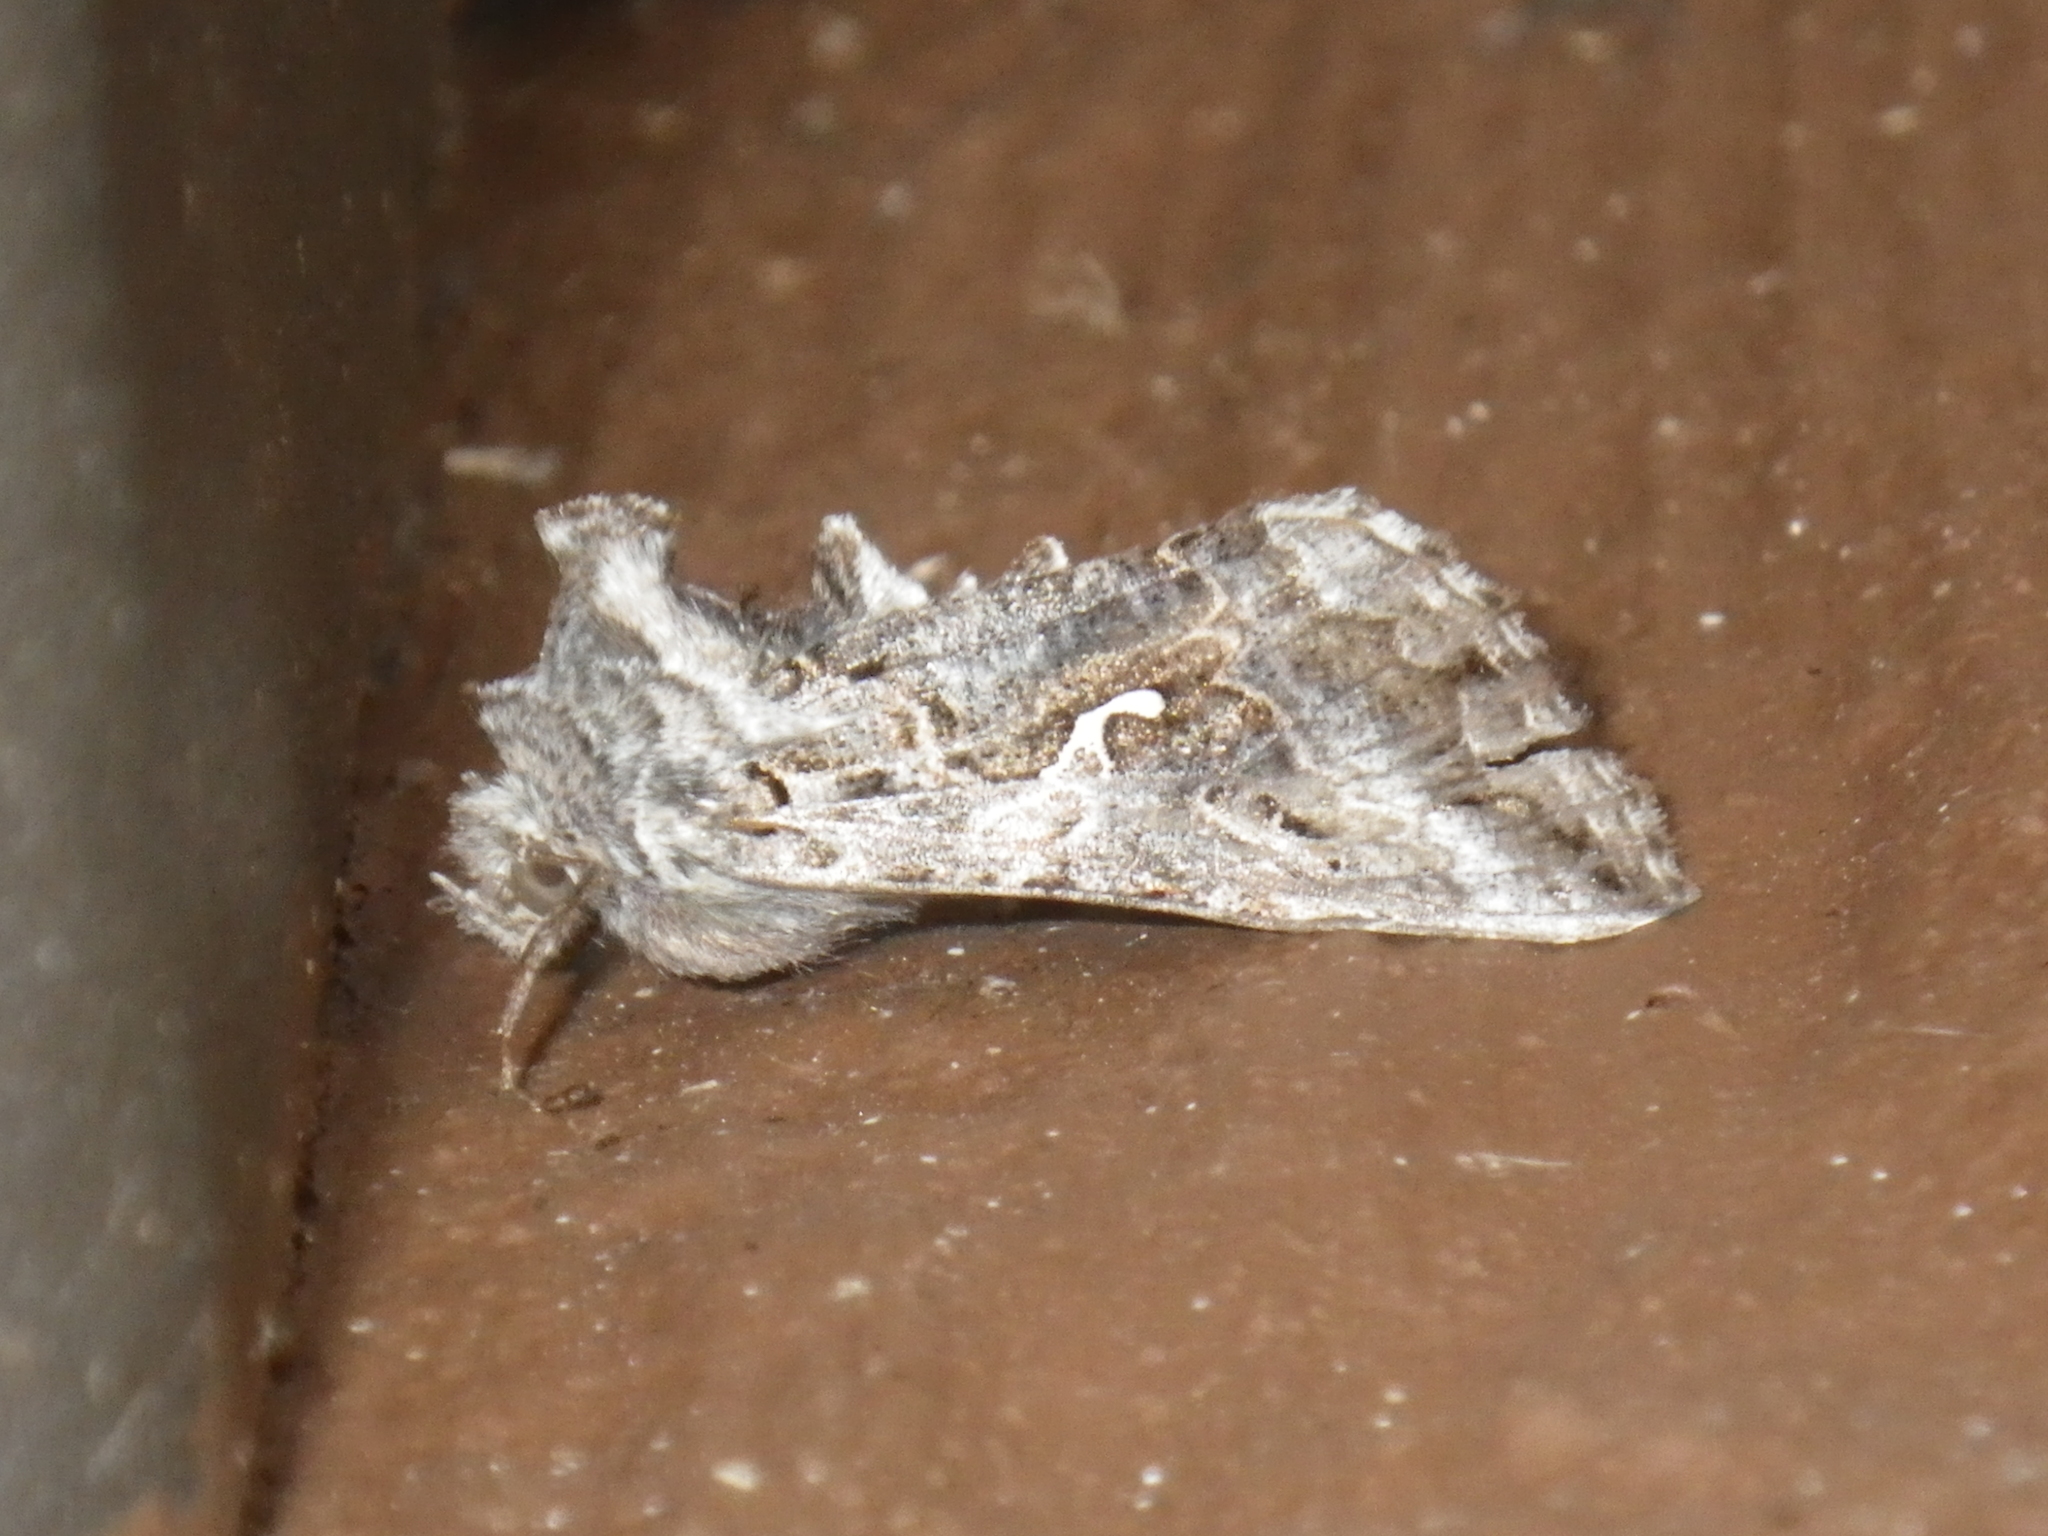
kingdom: Animalia
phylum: Arthropoda
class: Insecta
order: Lepidoptera
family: Noctuidae
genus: Autographa
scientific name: Autographa californica
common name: Alfalfa looper
